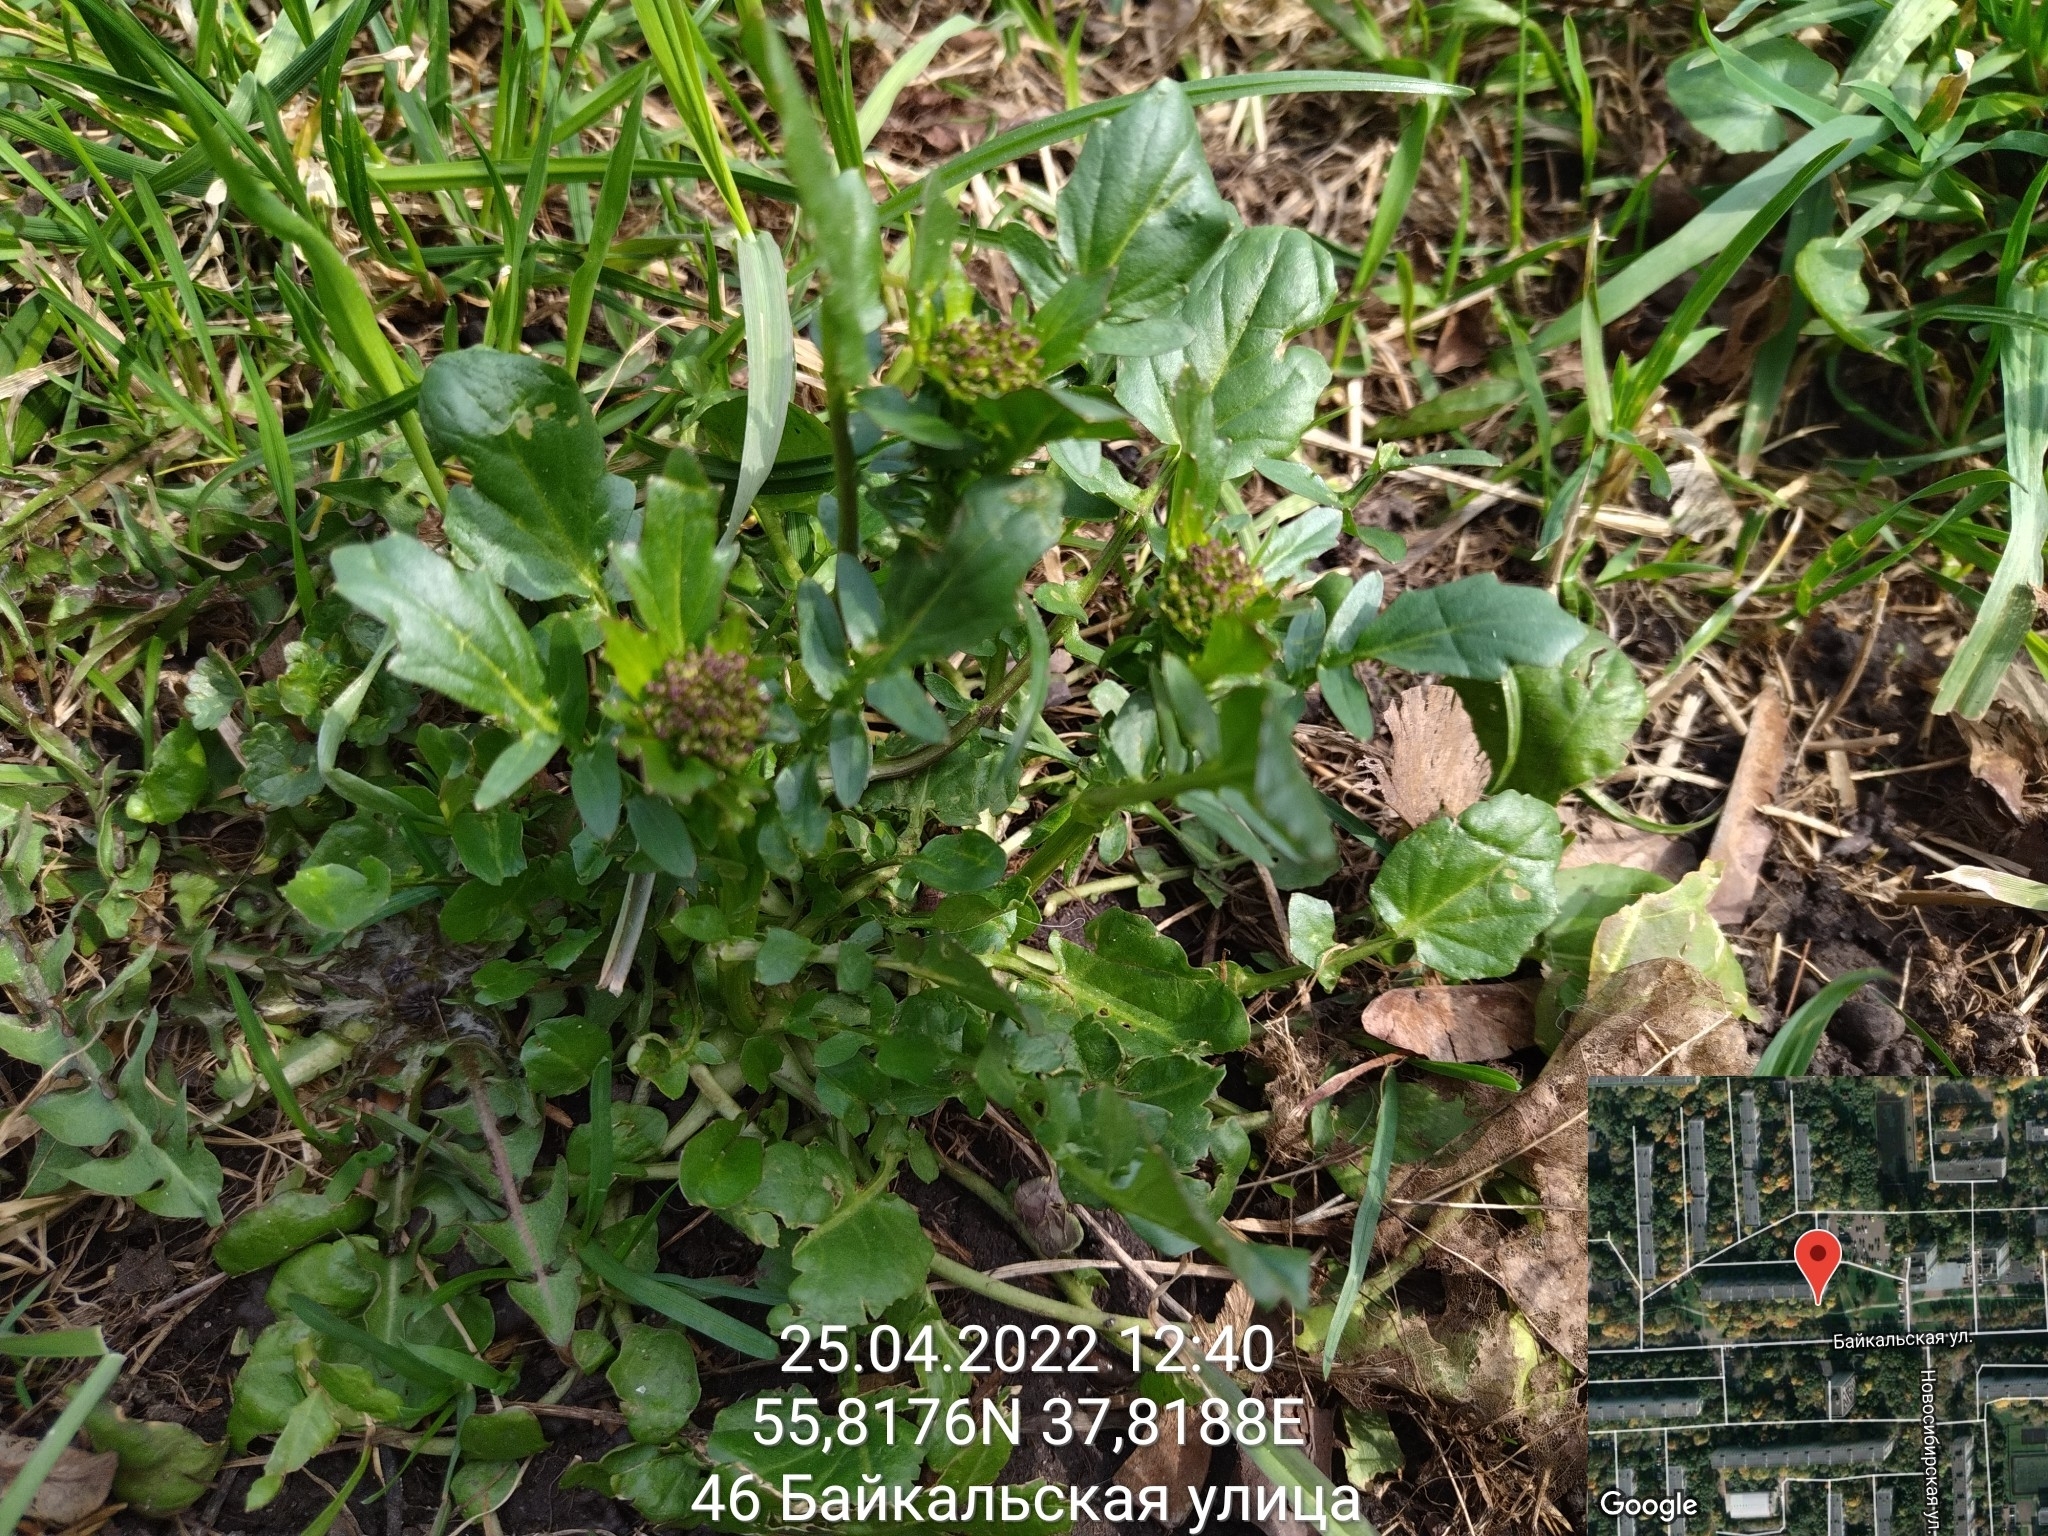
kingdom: Plantae
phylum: Tracheophyta
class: Magnoliopsida
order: Brassicales
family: Brassicaceae
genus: Barbarea
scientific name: Barbarea vulgaris
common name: Cressy-greens
